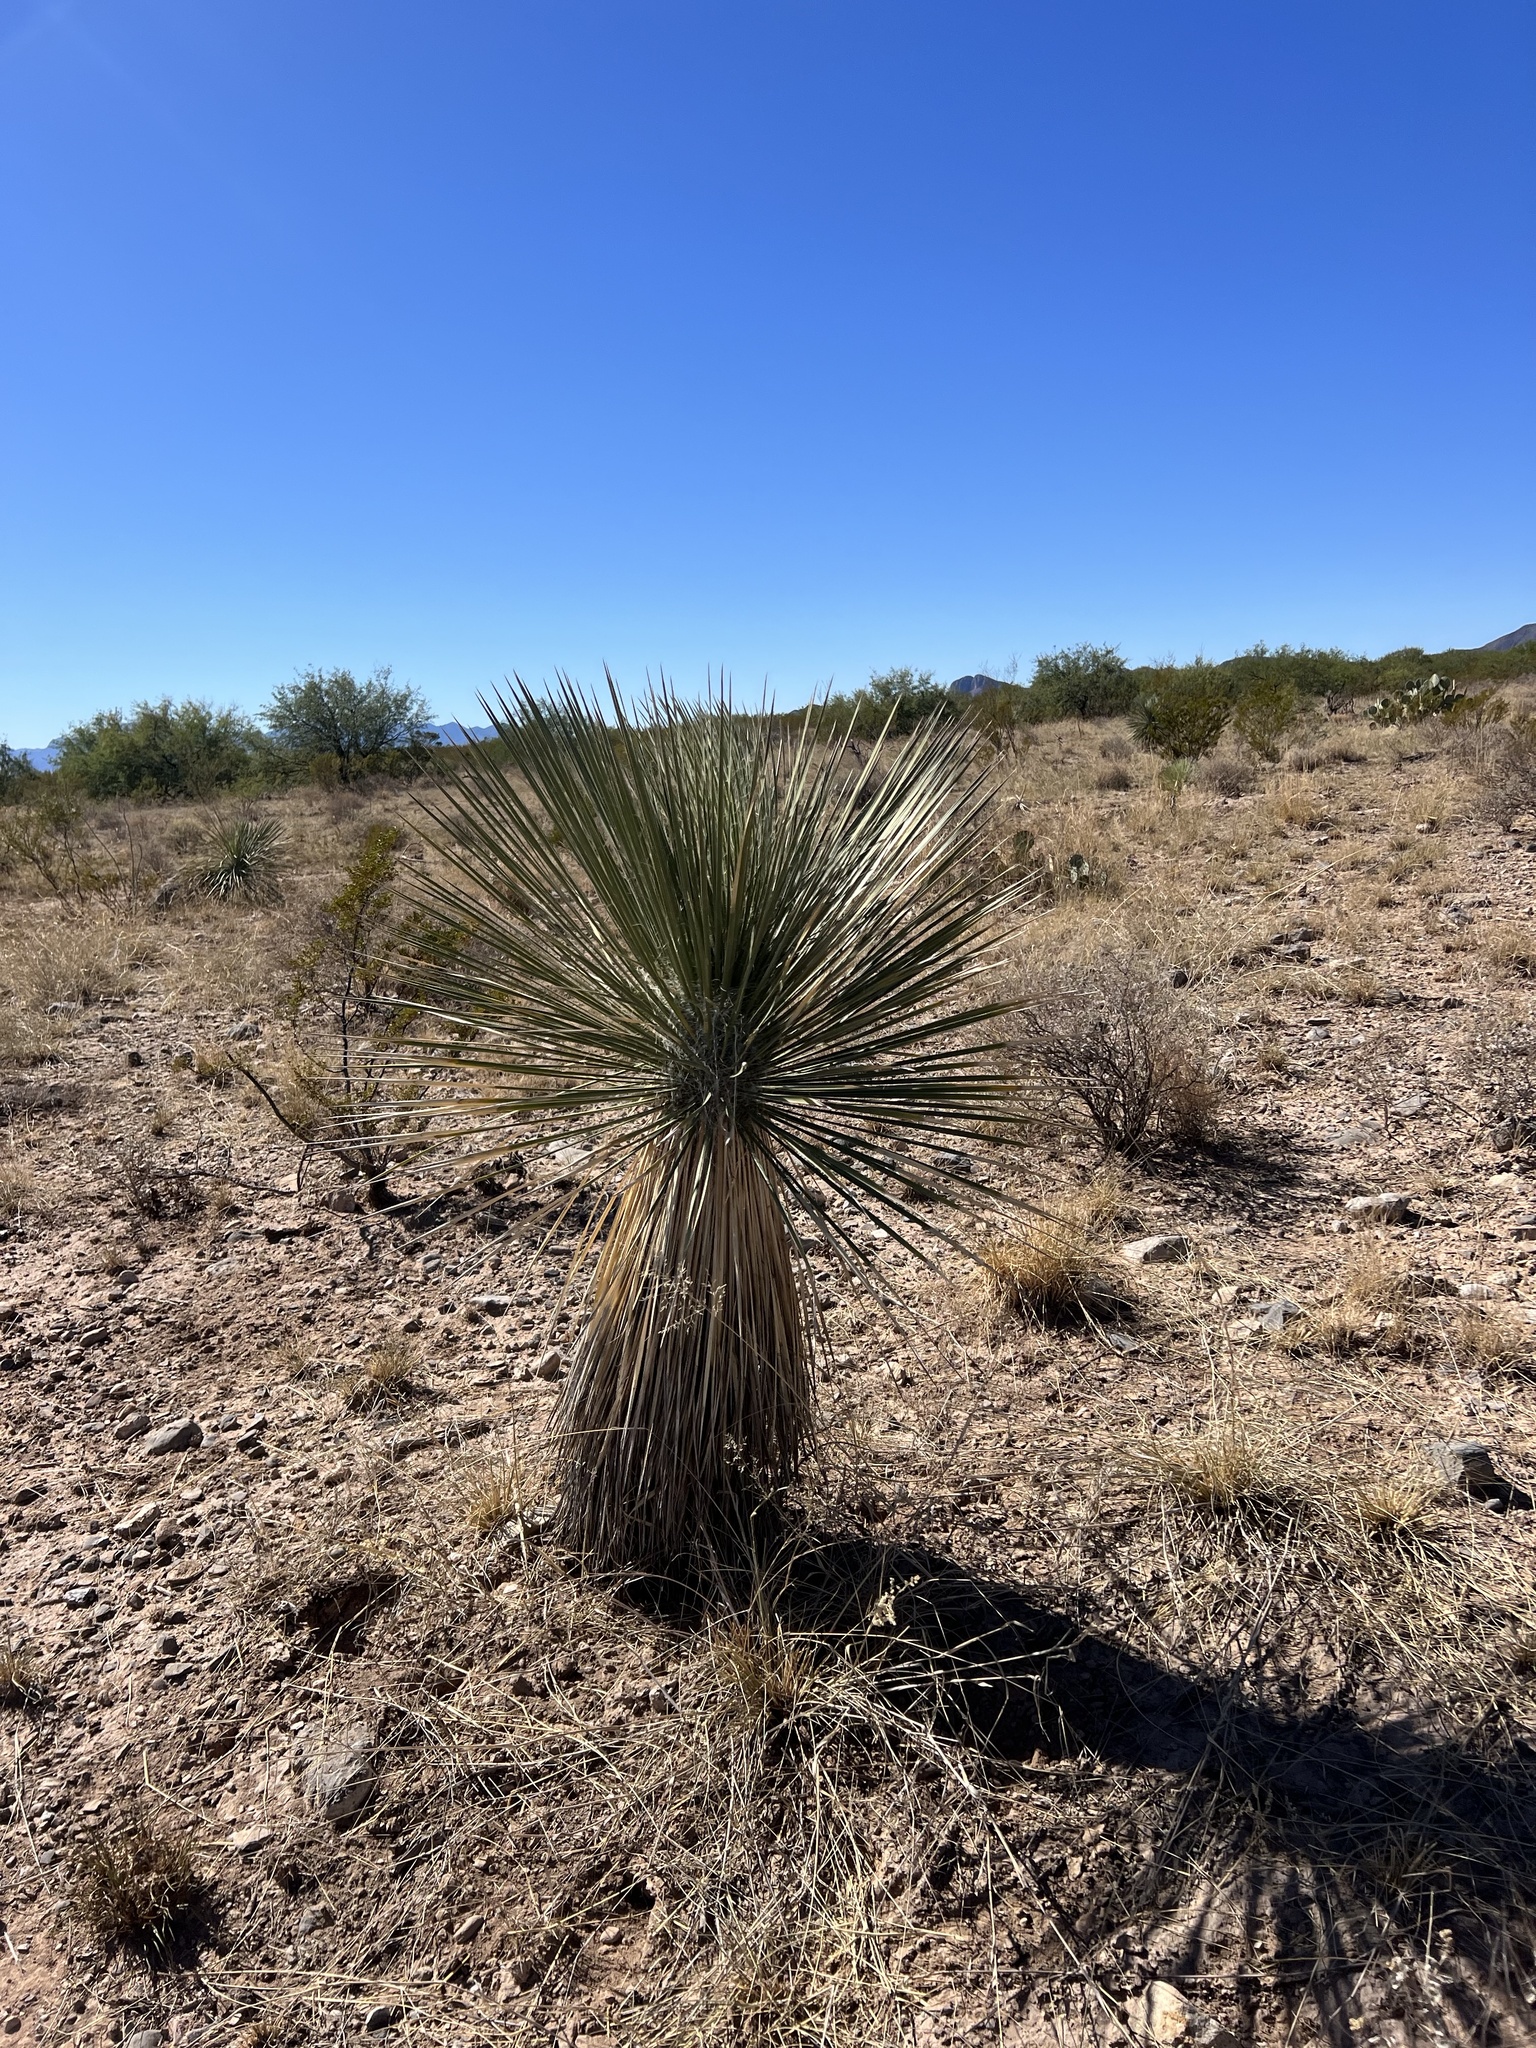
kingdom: Plantae
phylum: Tracheophyta
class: Liliopsida
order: Asparagales
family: Asparagaceae
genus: Yucca
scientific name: Yucca elata
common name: Palmella
